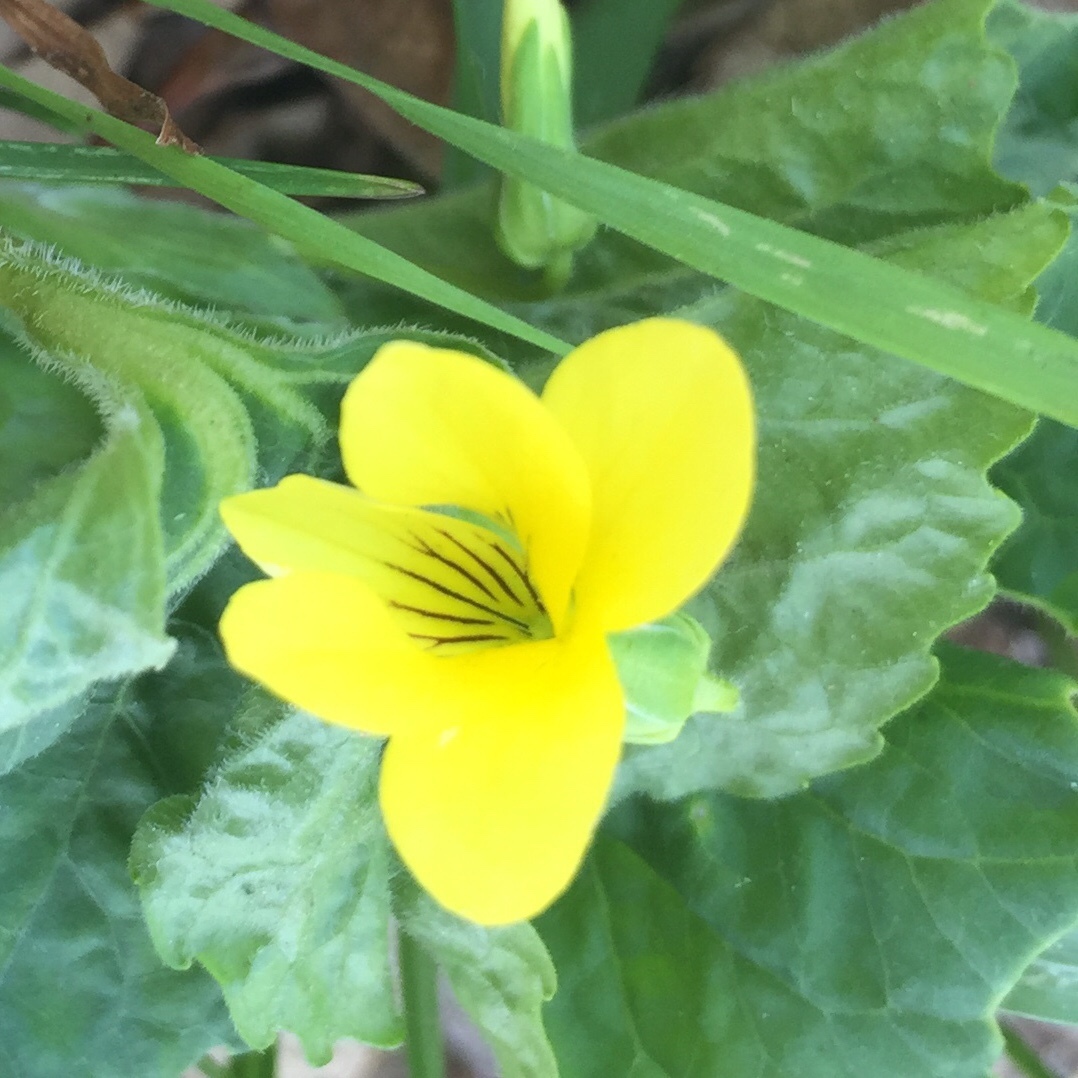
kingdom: Plantae
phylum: Tracheophyta
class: Magnoliopsida
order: Malpighiales
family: Violaceae
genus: Viola
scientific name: Viola eriocarpa
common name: Smooth yellow violet
